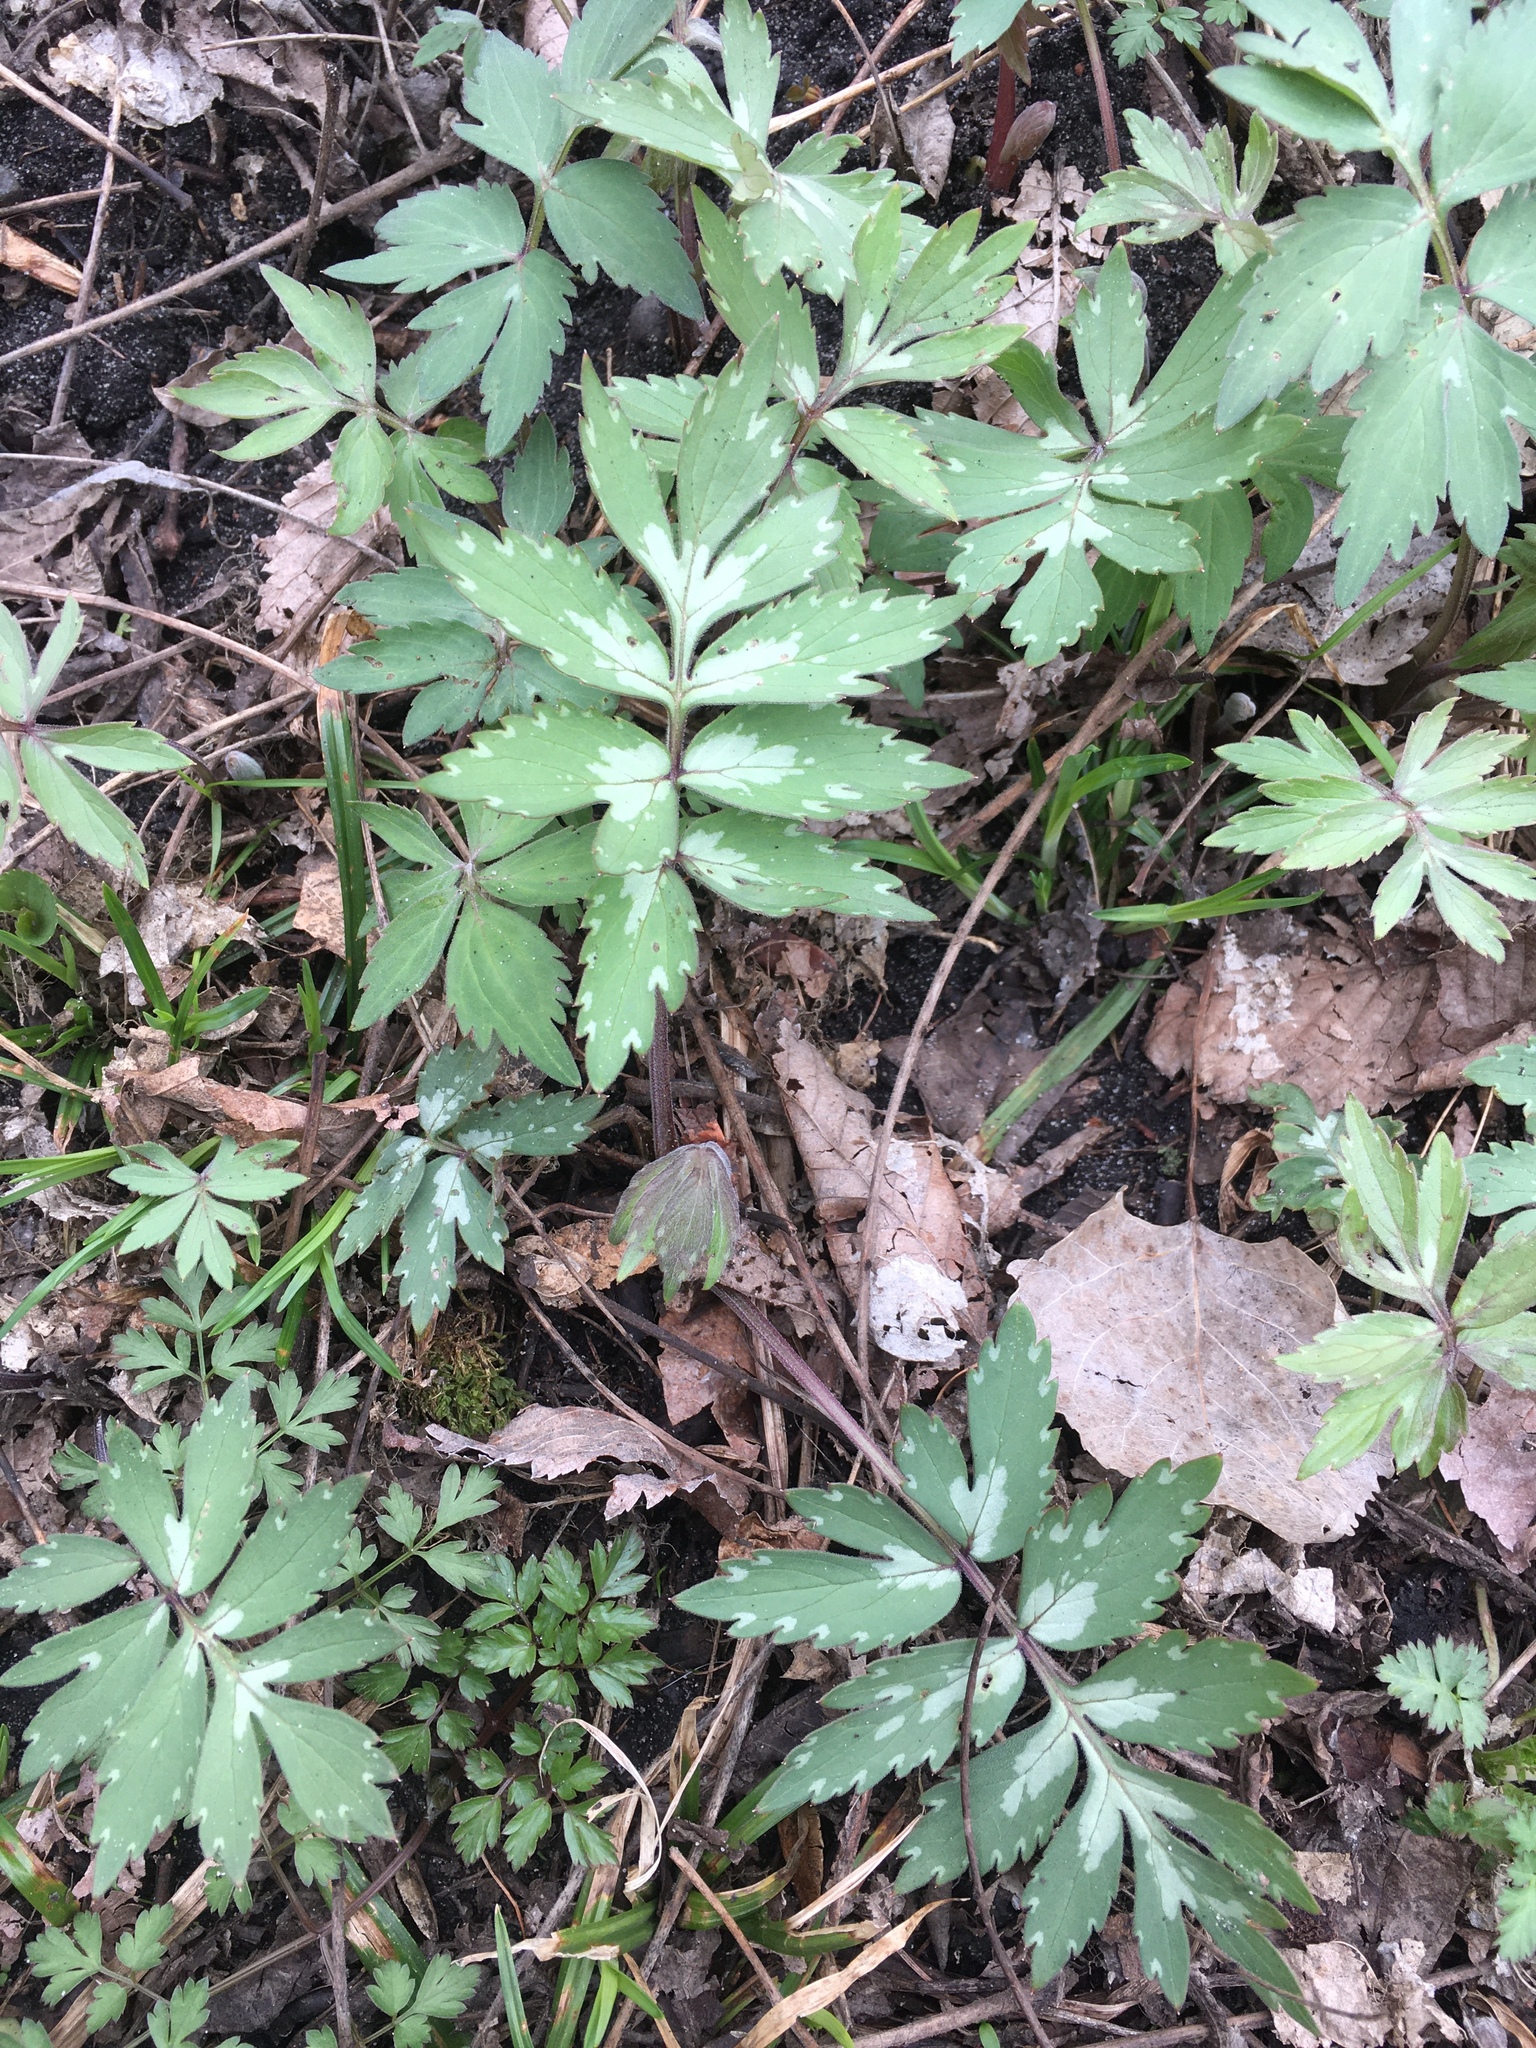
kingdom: Plantae
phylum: Tracheophyta
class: Magnoliopsida
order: Boraginales
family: Hydrophyllaceae
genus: Hydrophyllum
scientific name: Hydrophyllum virginianum
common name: Virginia waterleaf
